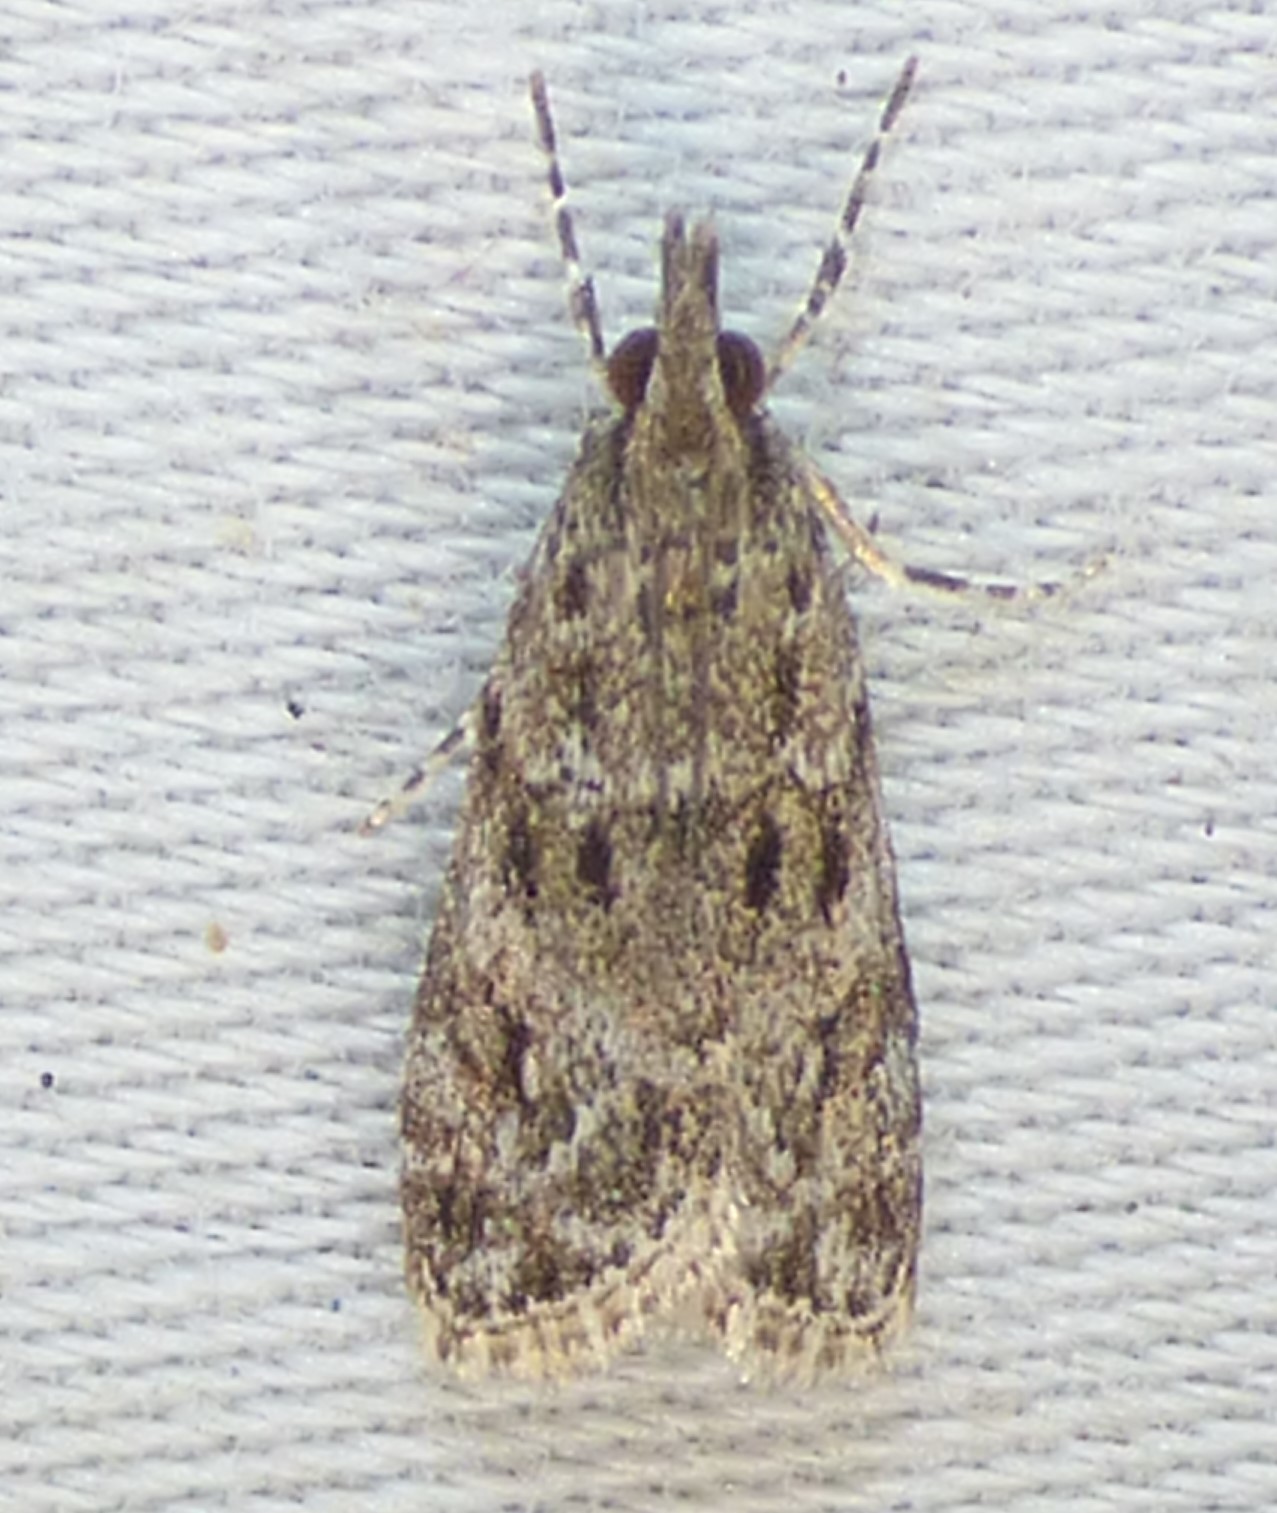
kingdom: Animalia
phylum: Arthropoda
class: Insecta
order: Lepidoptera
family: Crambidae
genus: Eudonia
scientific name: Eudonia heterosalis
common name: Mcdunnough's eudonia
